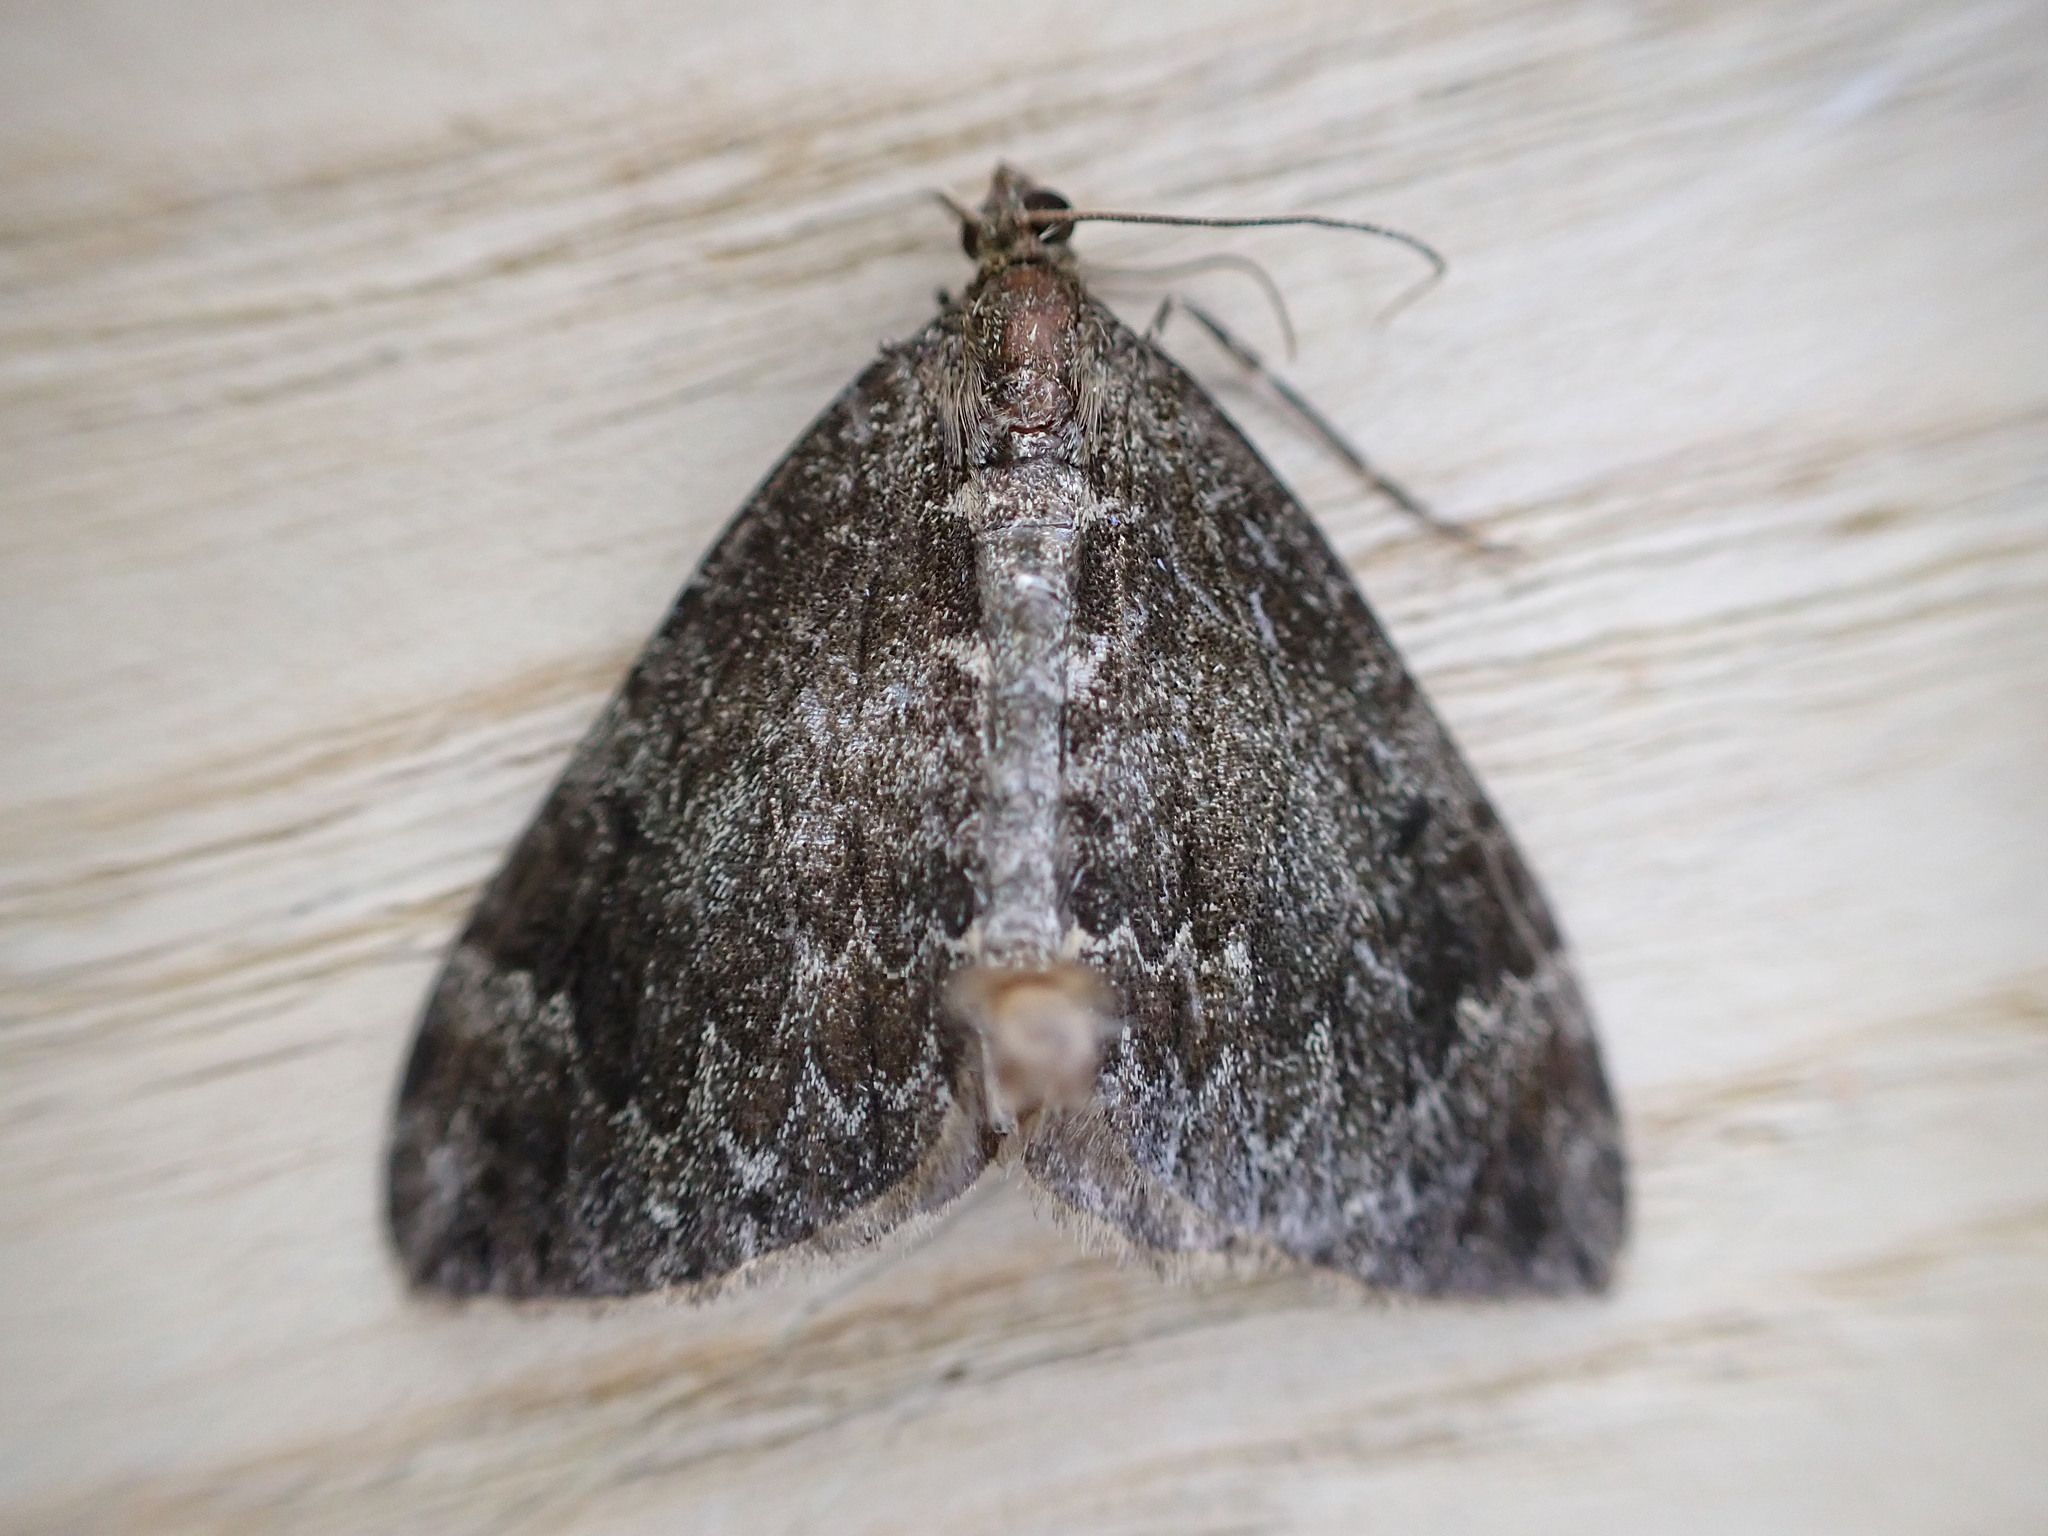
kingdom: Animalia
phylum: Arthropoda
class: Insecta
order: Lepidoptera
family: Geometridae
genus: Dysstroma
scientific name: Dysstroma truncata
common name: Common marbled carpet
